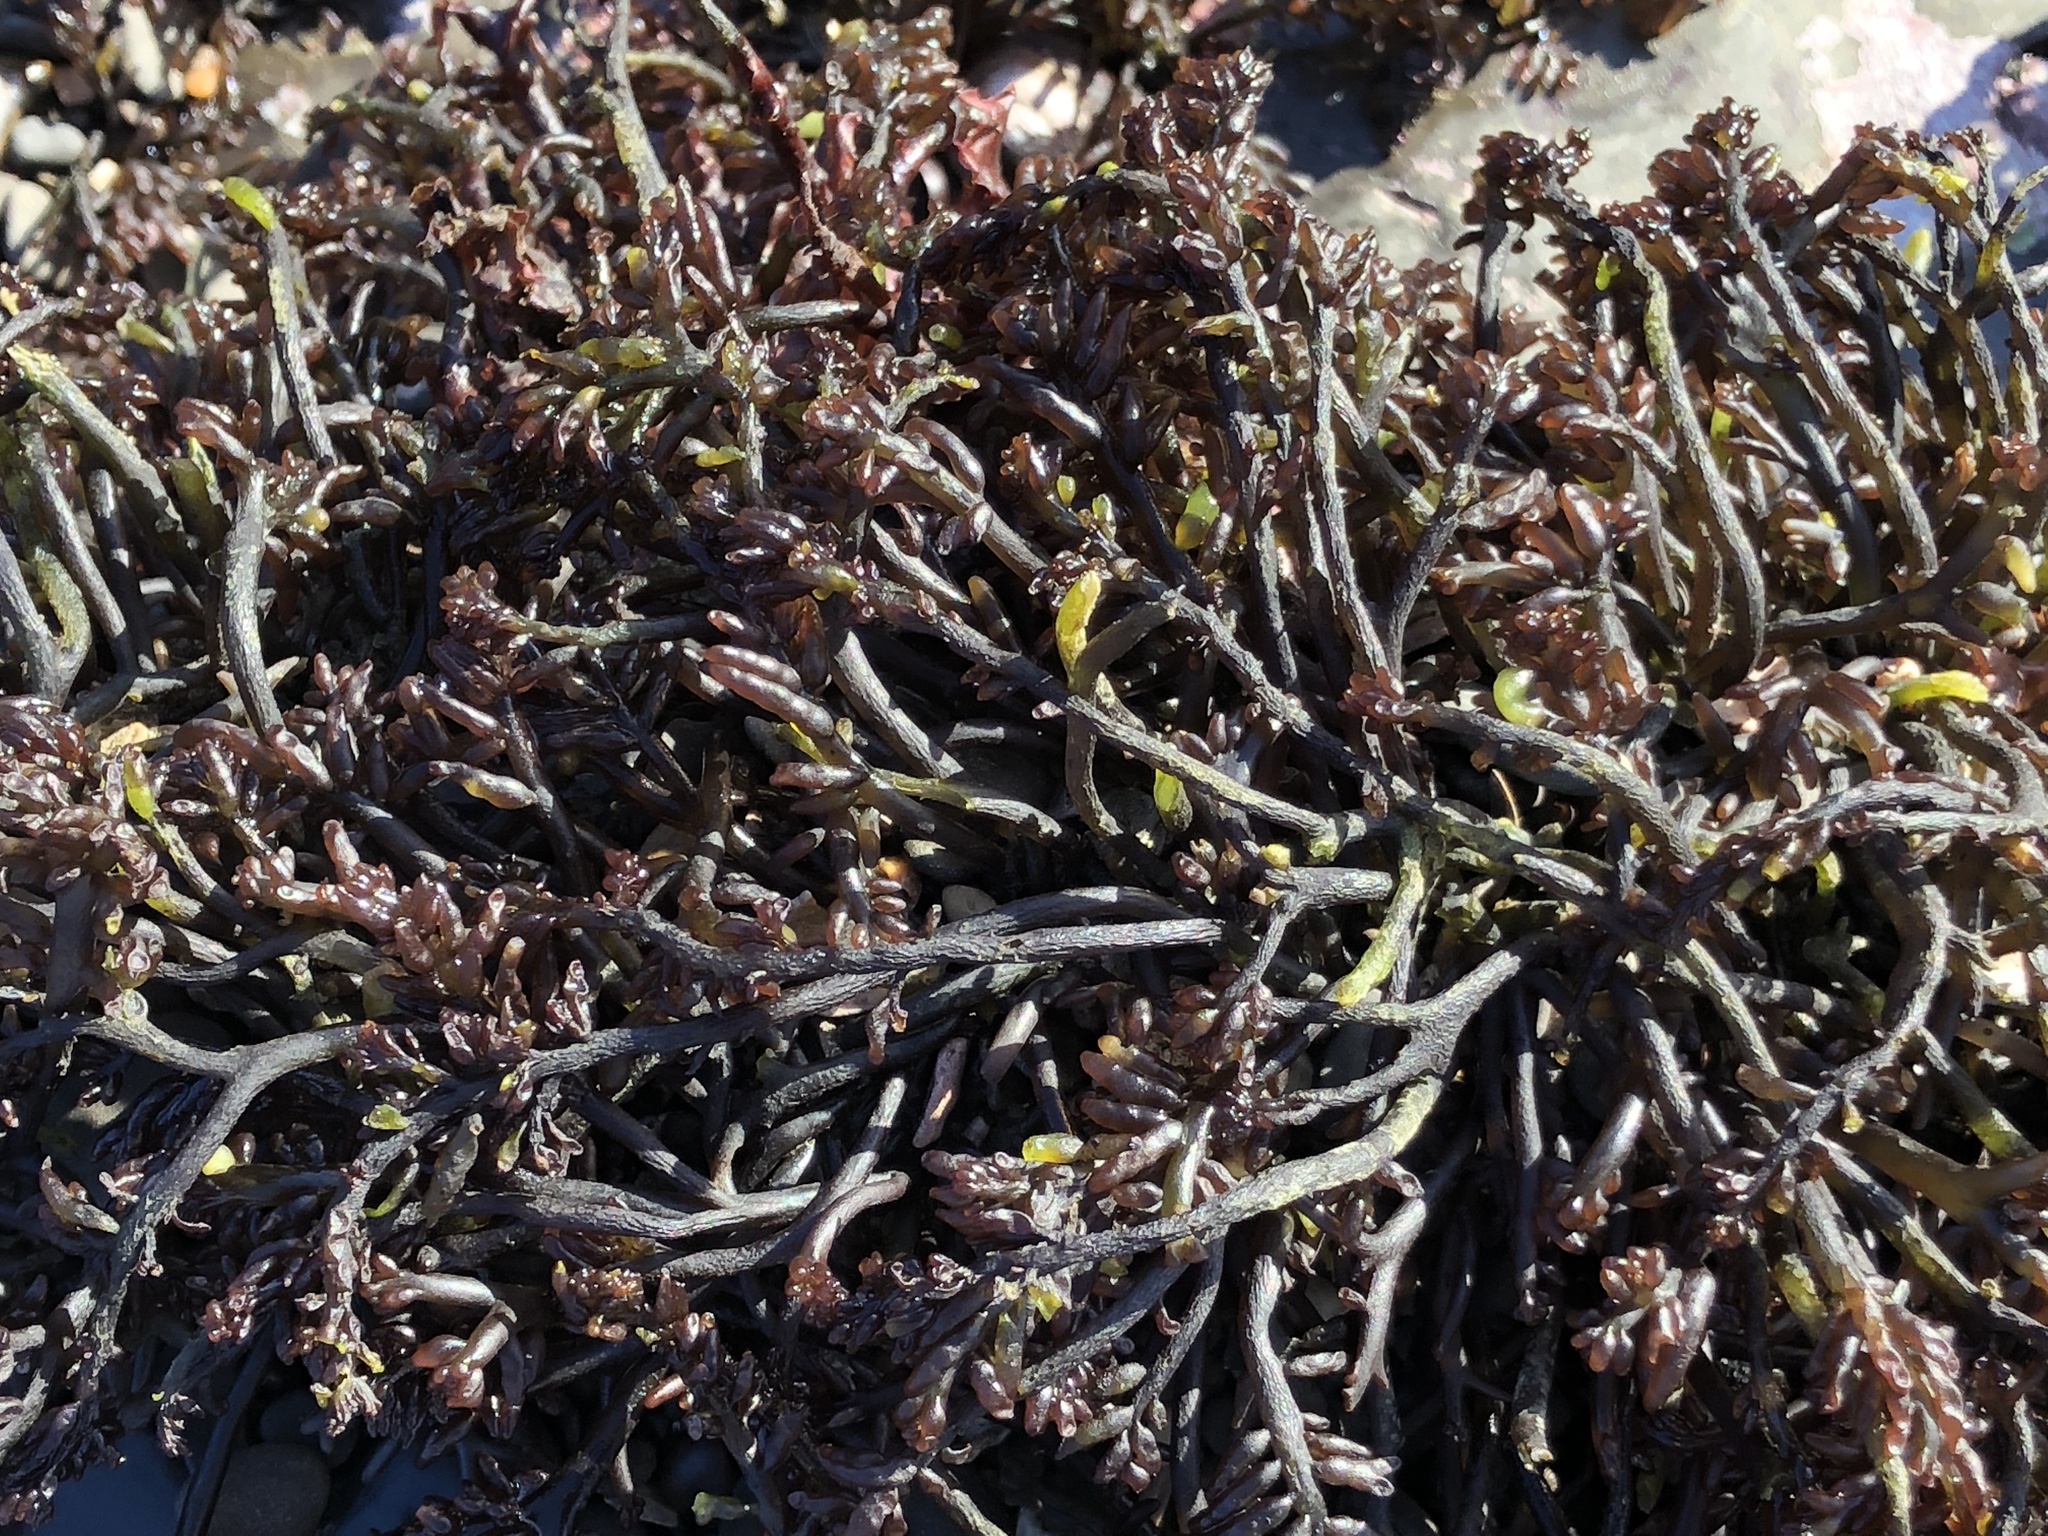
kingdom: Plantae
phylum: Rhodophyta
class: Florideophyceae
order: Rhodymeniales
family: Champiaceae
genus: Neogastroclonium
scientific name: Neogastroclonium subarticulatum
